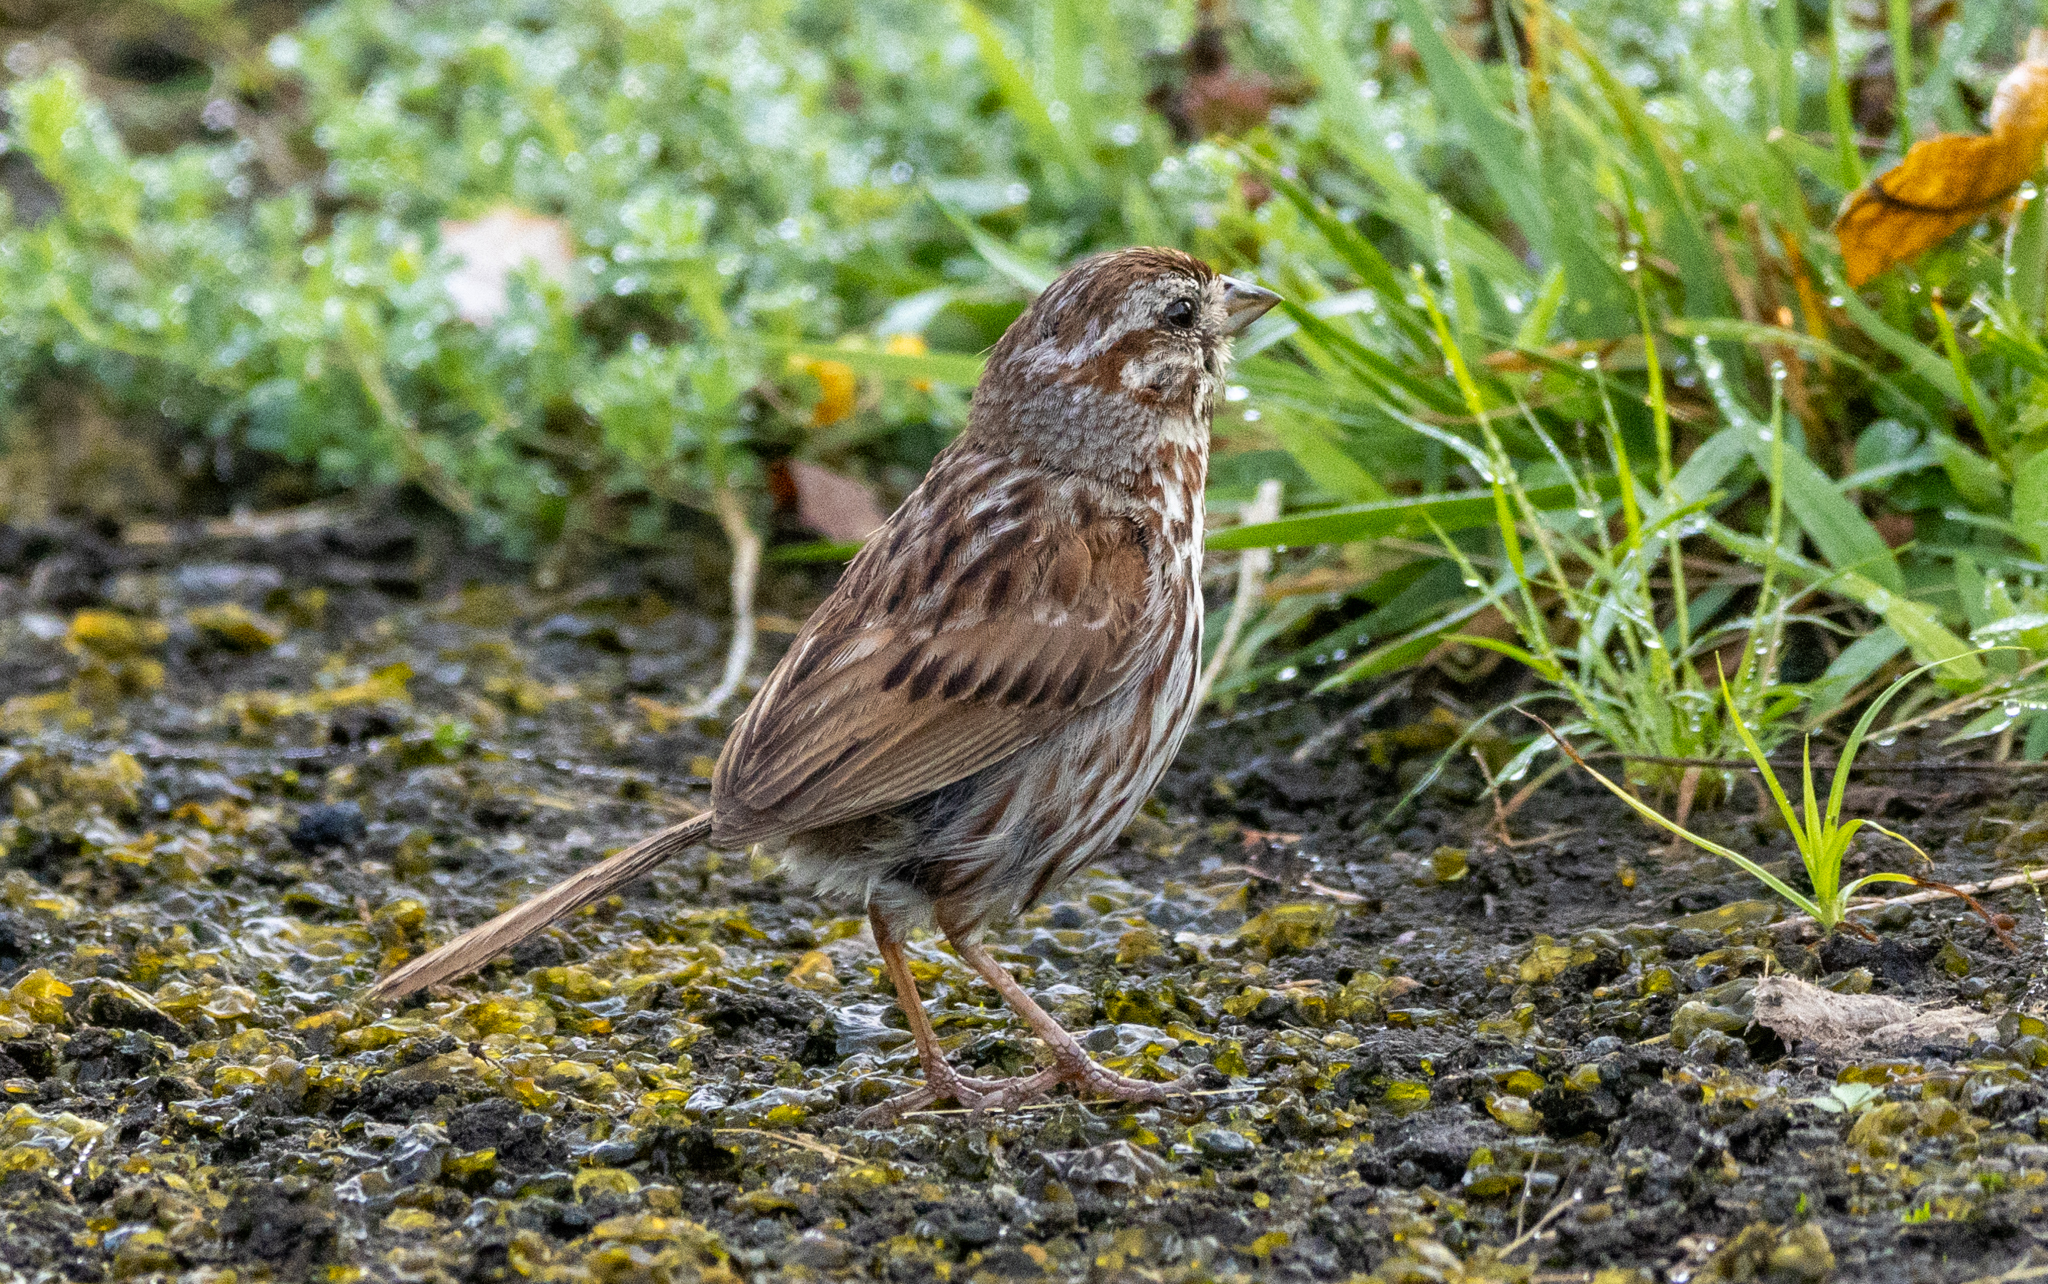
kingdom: Animalia
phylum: Chordata
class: Aves
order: Passeriformes
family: Passerellidae
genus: Melospiza
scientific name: Melospiza melodia
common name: Song sparrow
